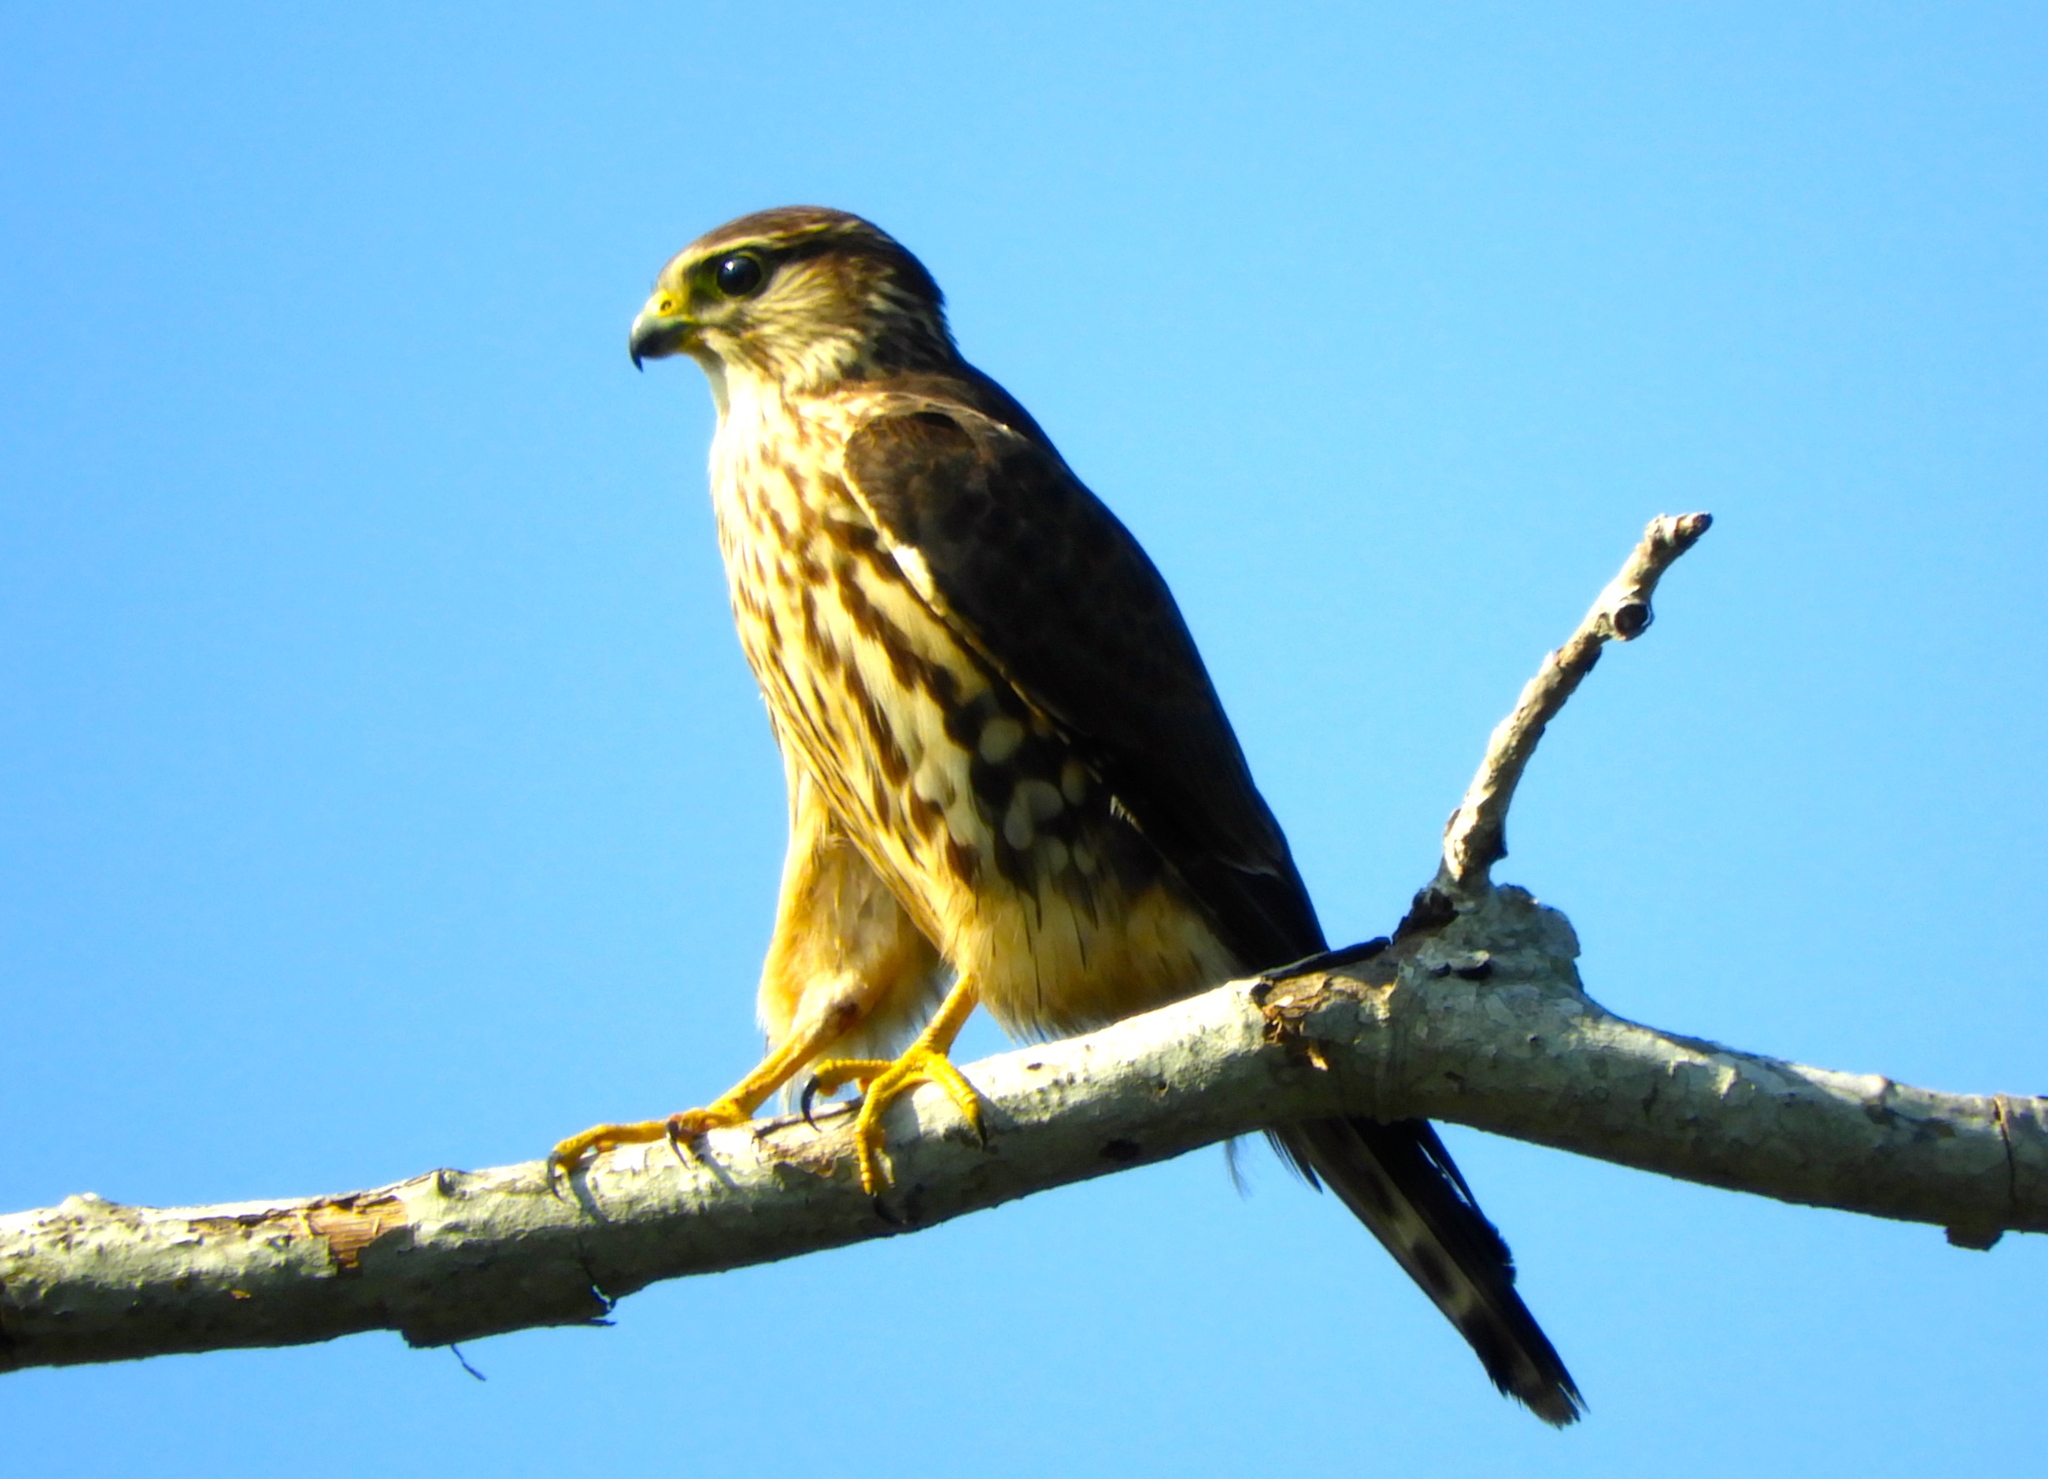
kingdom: Animalia
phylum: Chordata
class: Aves
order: Falconiformes
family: Falconidae
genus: Falco
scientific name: Falco columbarius
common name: Merlin
